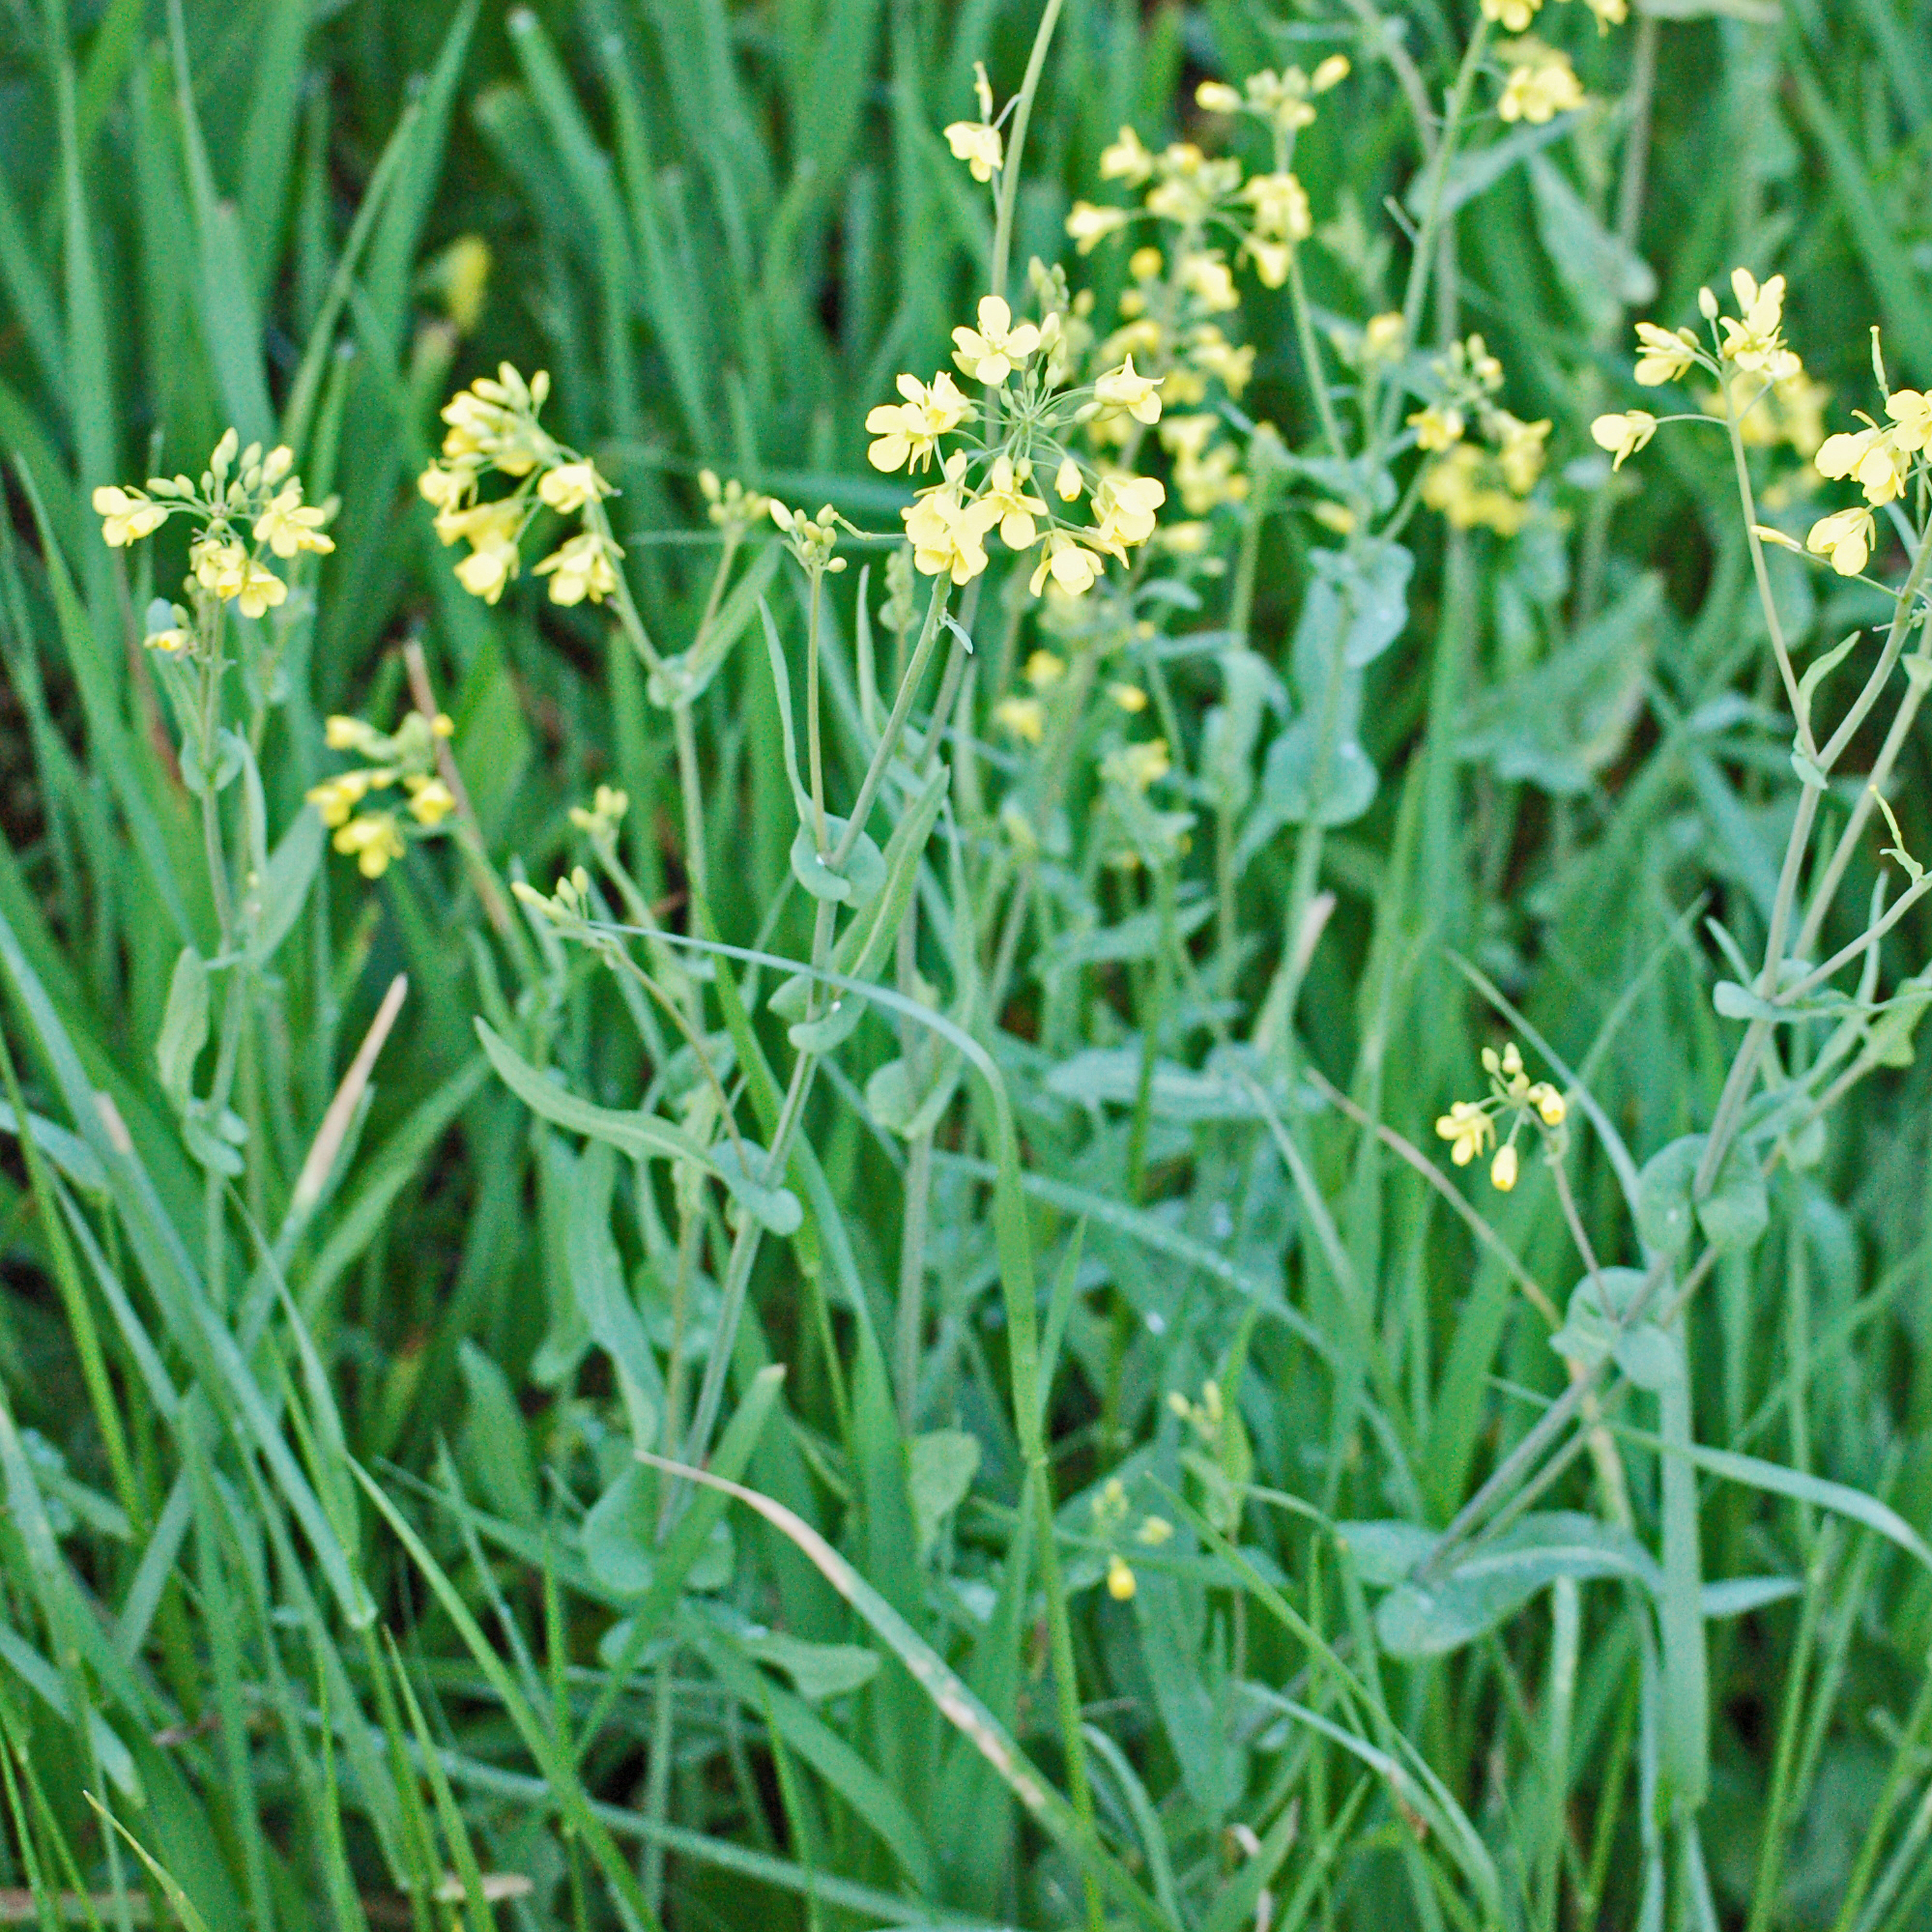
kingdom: Plantae
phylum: Tracheophyta
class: Magnoliopsida
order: Brassicales
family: Brassicaceae
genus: Brassica
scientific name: Brassica rapa
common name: Field mustard
